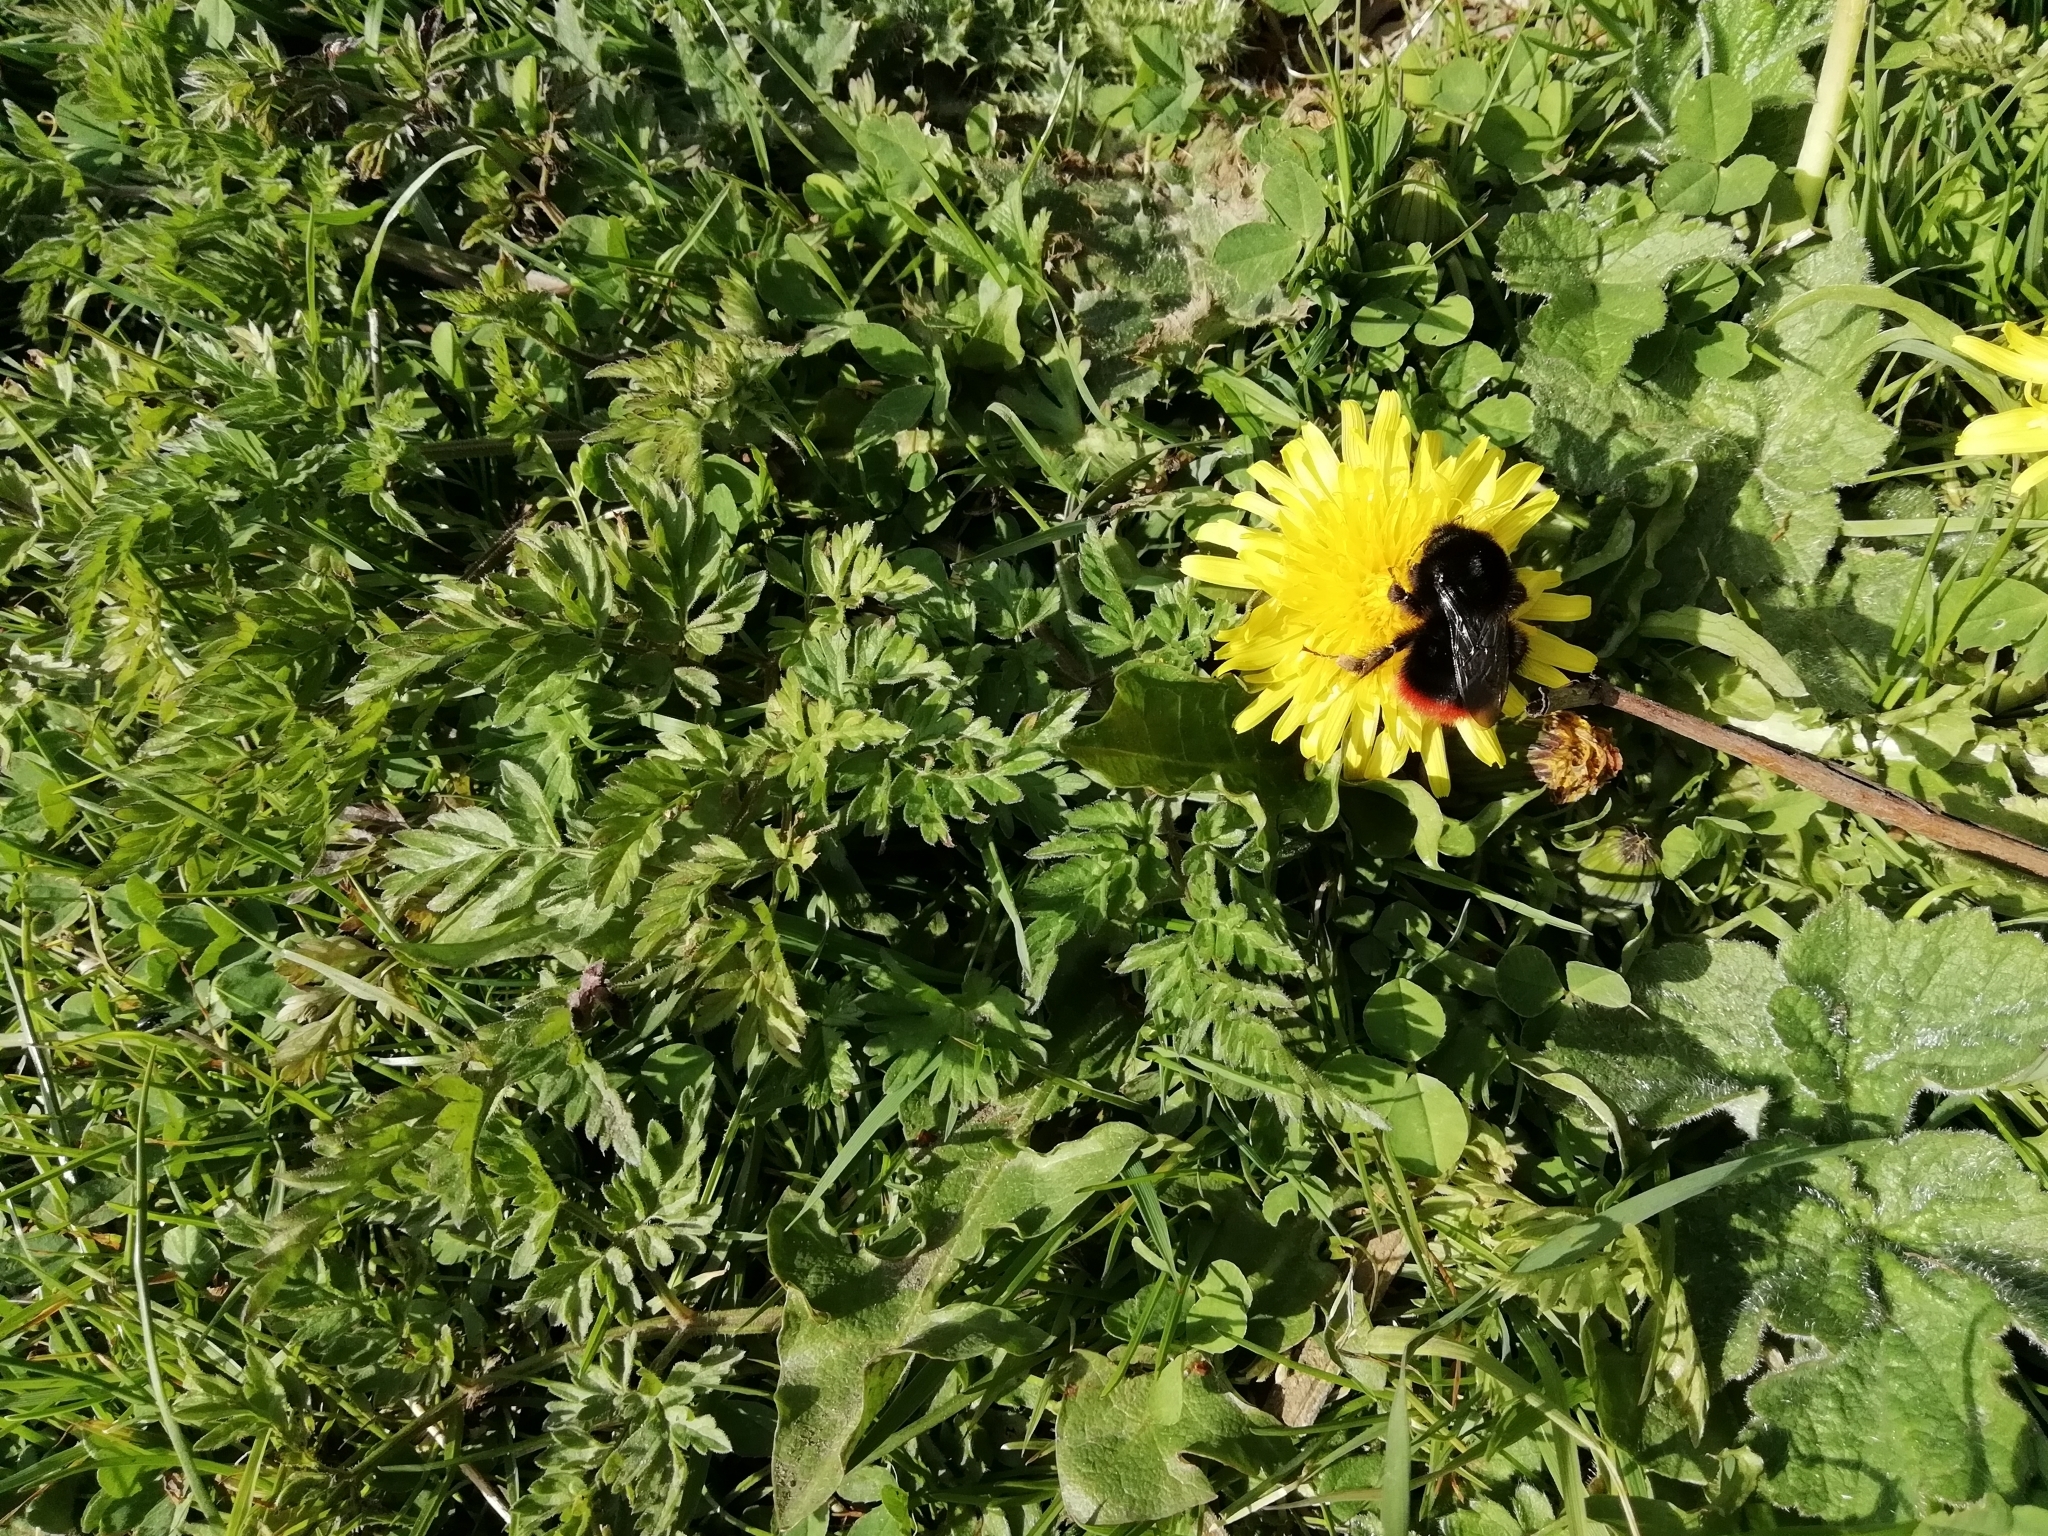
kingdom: Animalia
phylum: Arthropoda
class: Insecta
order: Hymenoptera
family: Apidae
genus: Bombus
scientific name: Bombus lapidarius
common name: Large red-tailed humble-bee
